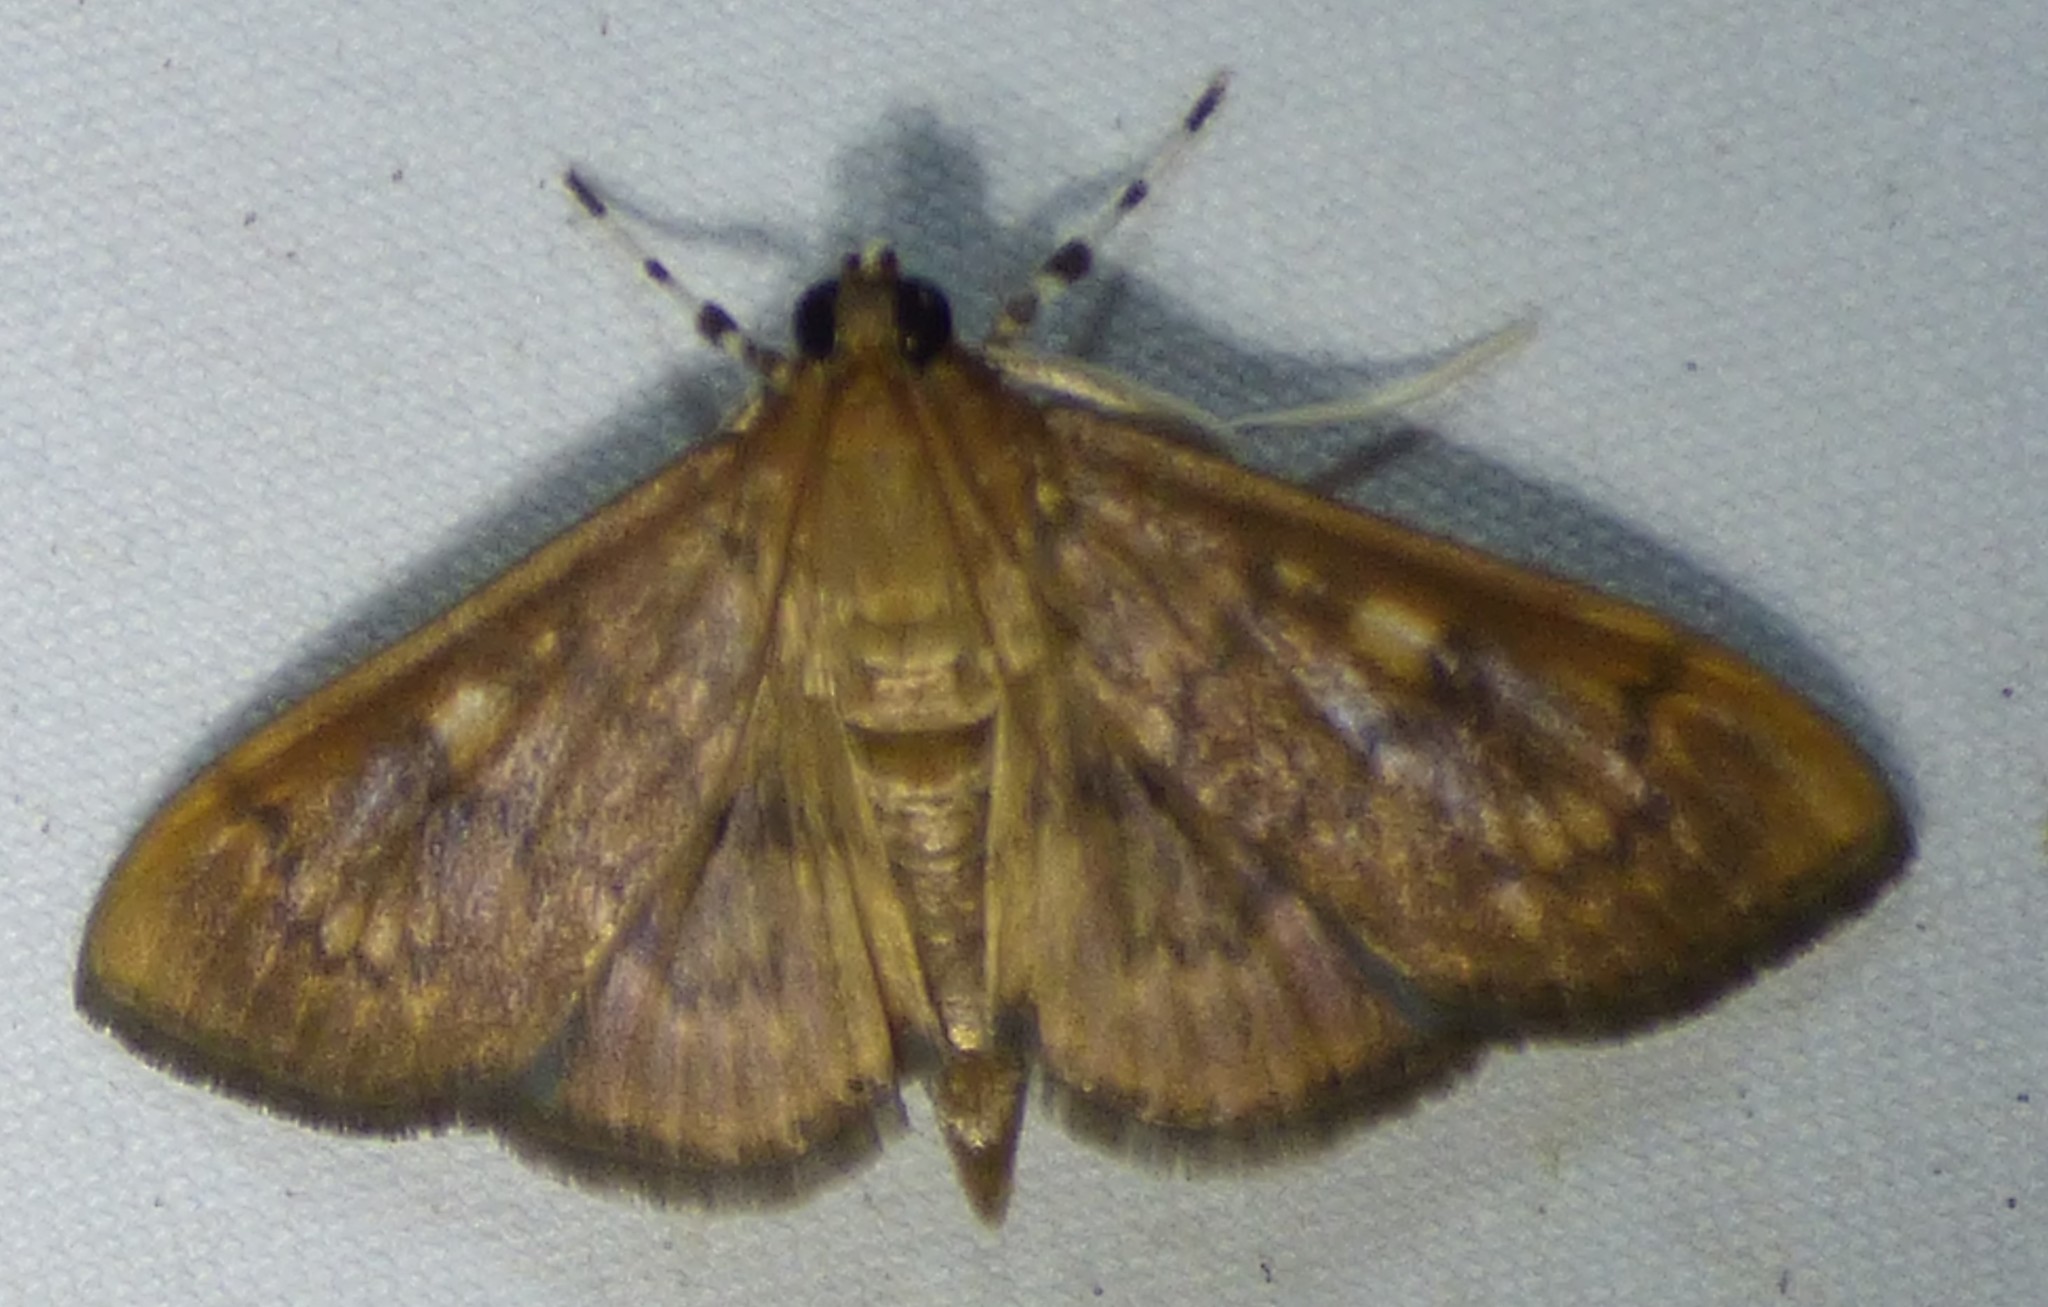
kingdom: Animalia
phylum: Arthropoda
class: Insecta
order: Lepidoptera
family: Crambidae
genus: Syllepte
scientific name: Syllepte obscuralis
